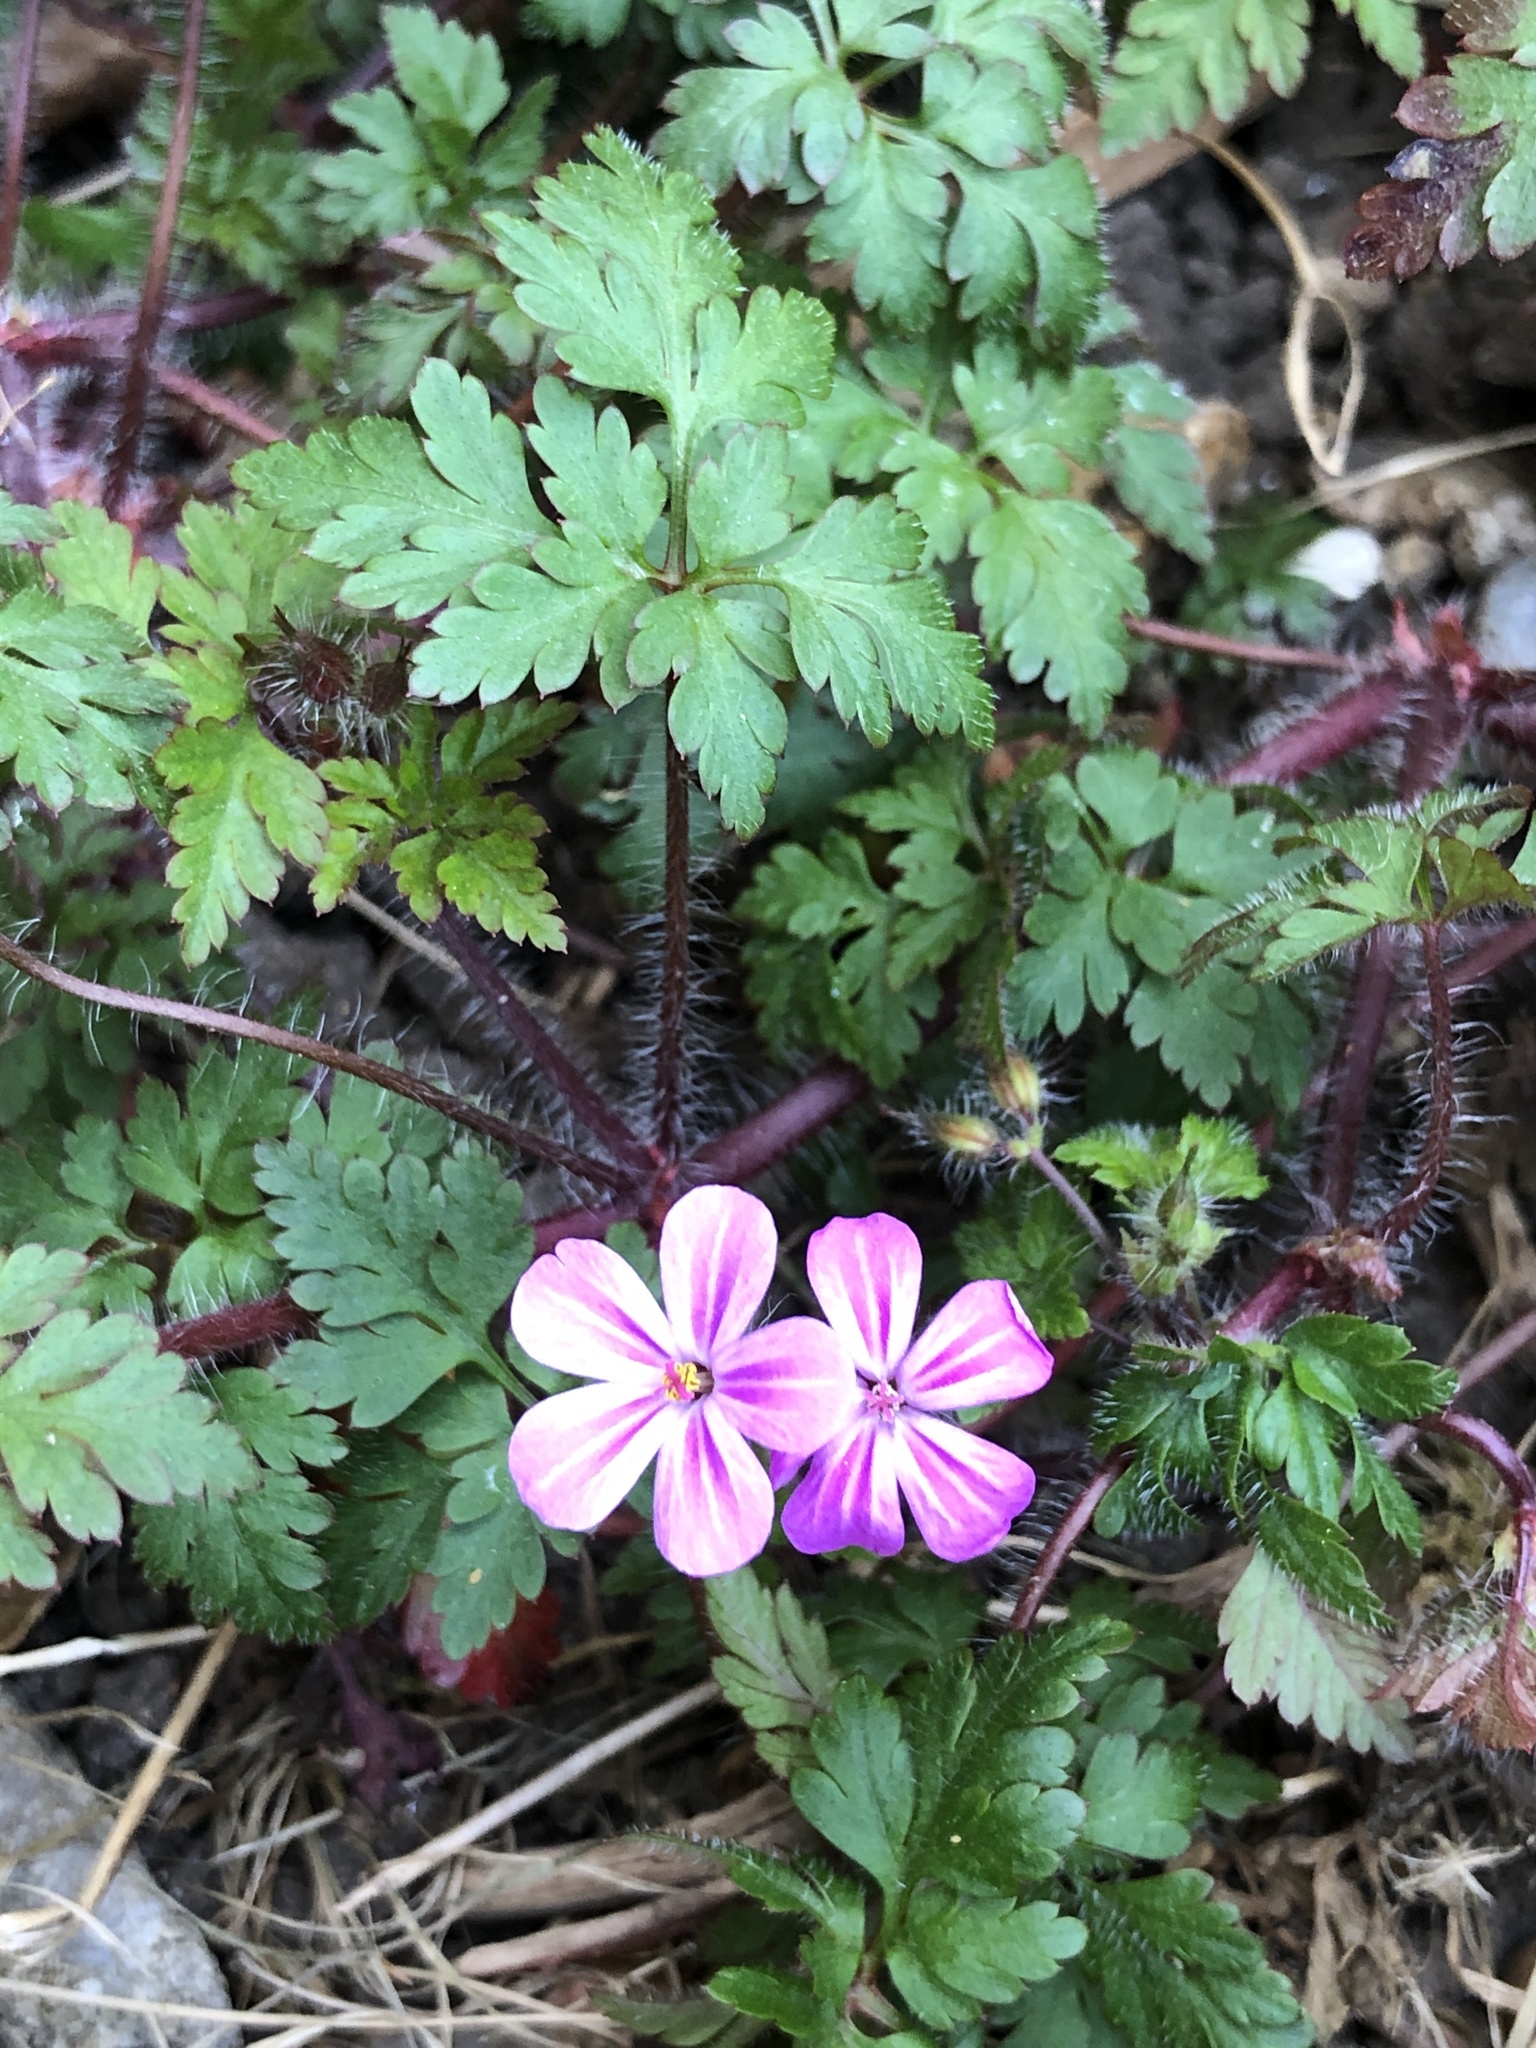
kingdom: Plantae
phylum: Tracheophyta
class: Magnoliopsida
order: Geraniales
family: Geraniaceae
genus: Geranium
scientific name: Geranium robertianum
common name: Herb-robert
